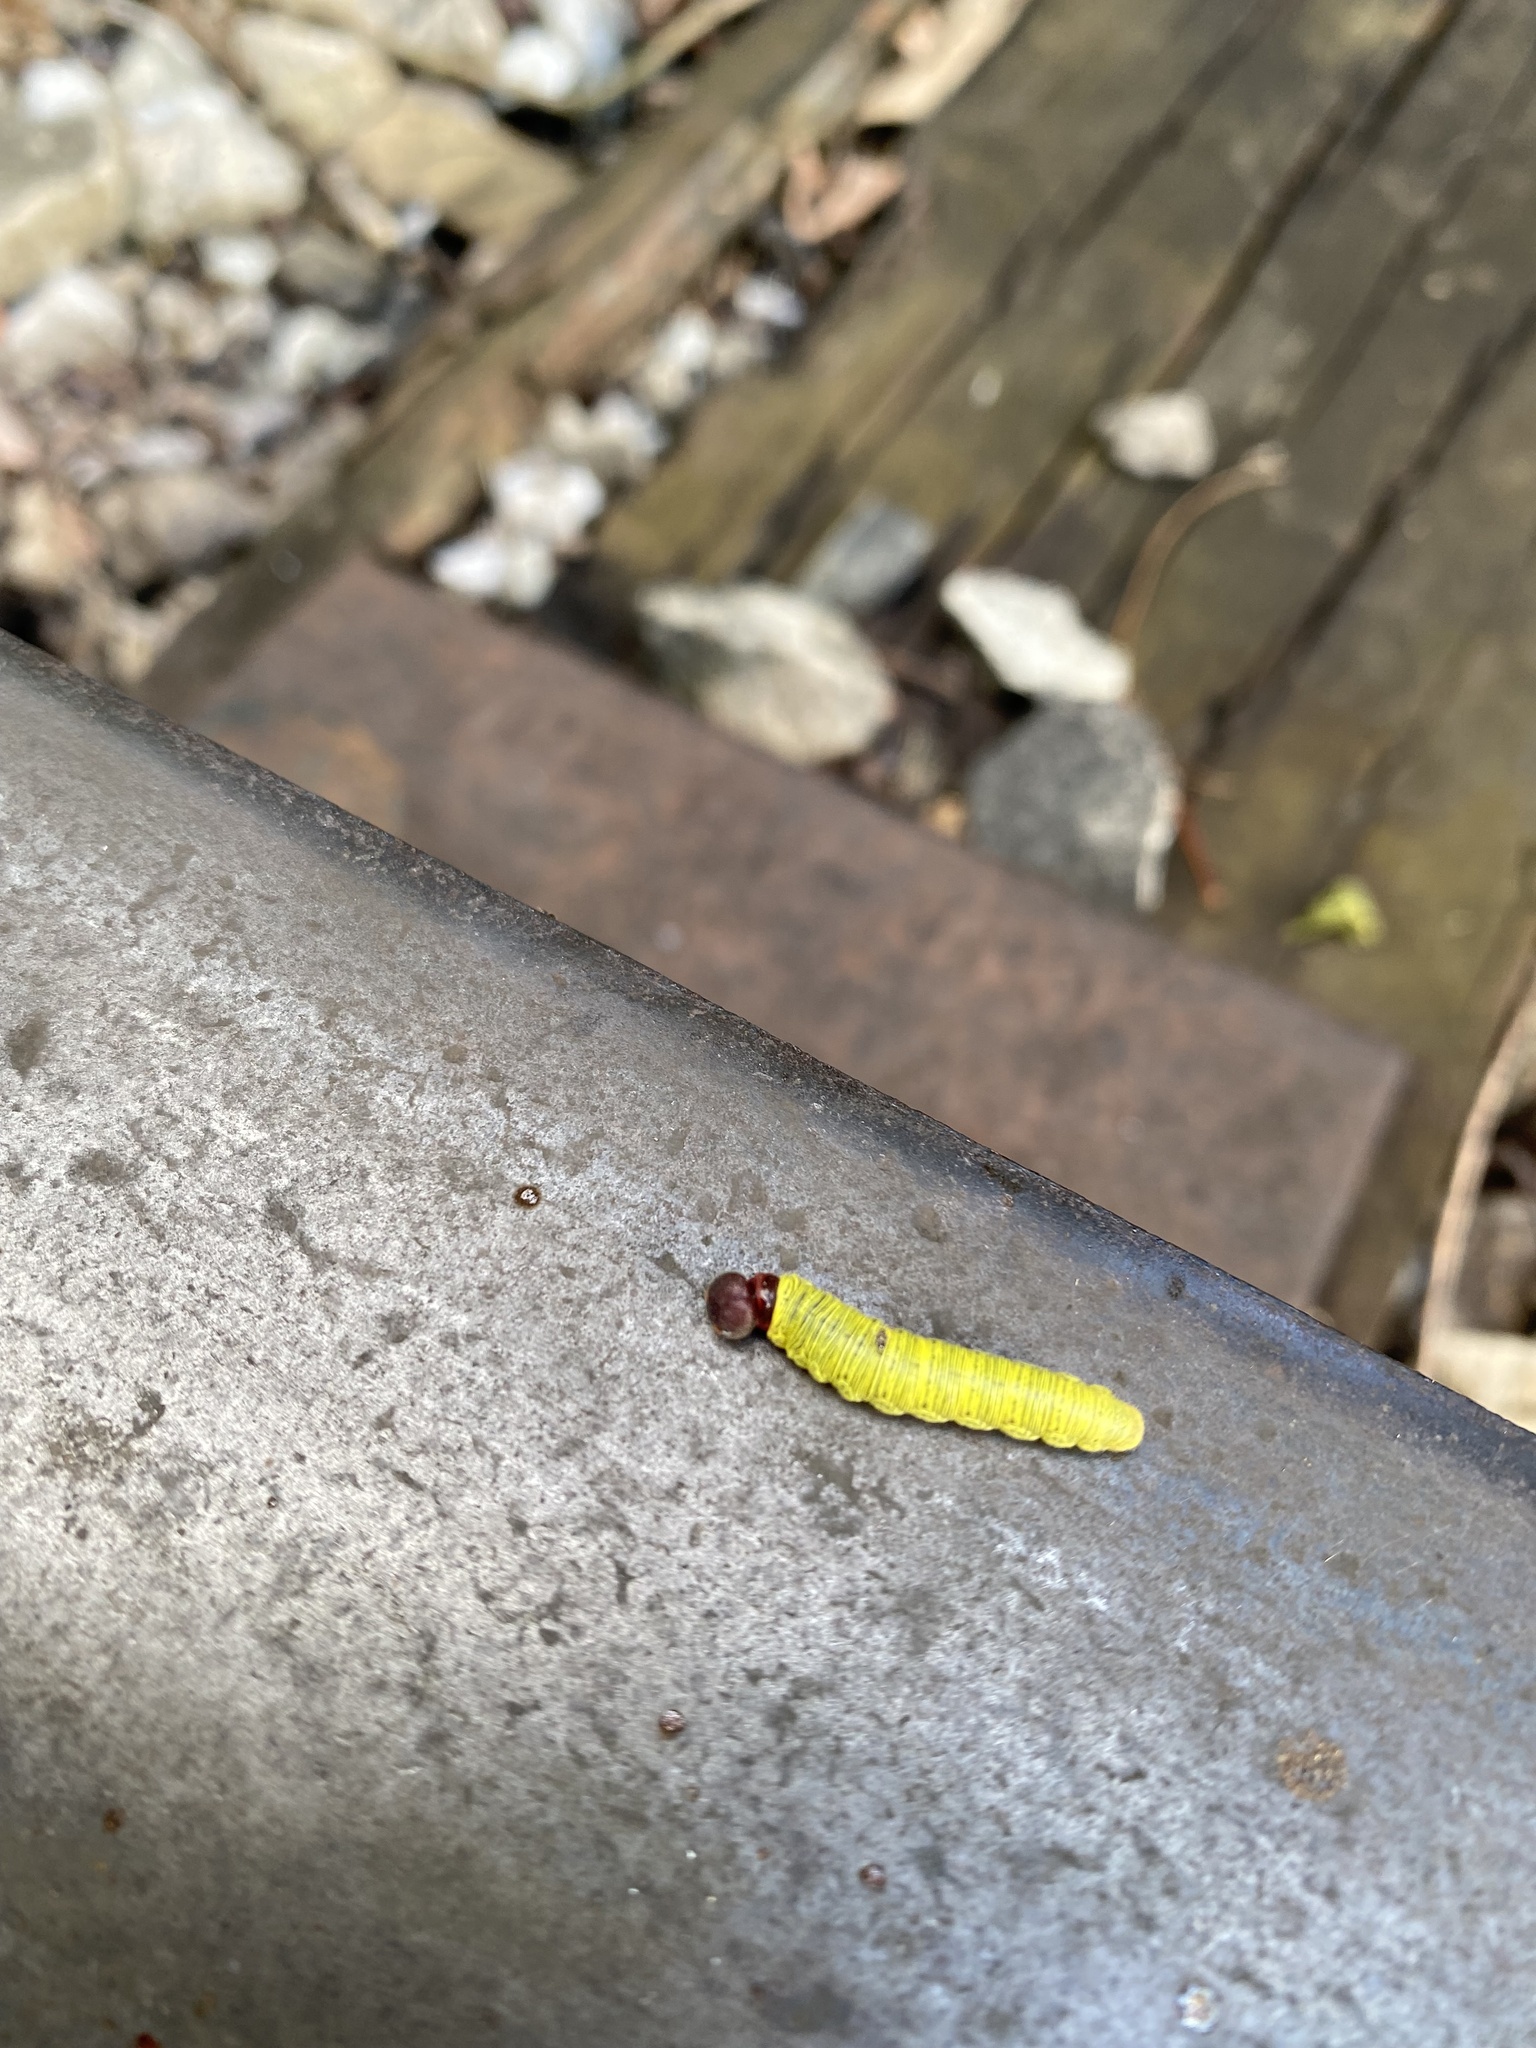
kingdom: Animalia
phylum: Arthropoda
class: Insecta
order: Lepidoptera
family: Hesperiidae
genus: Epargyreus
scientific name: Epargyreus clarus
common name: Silver-spotted skipper
